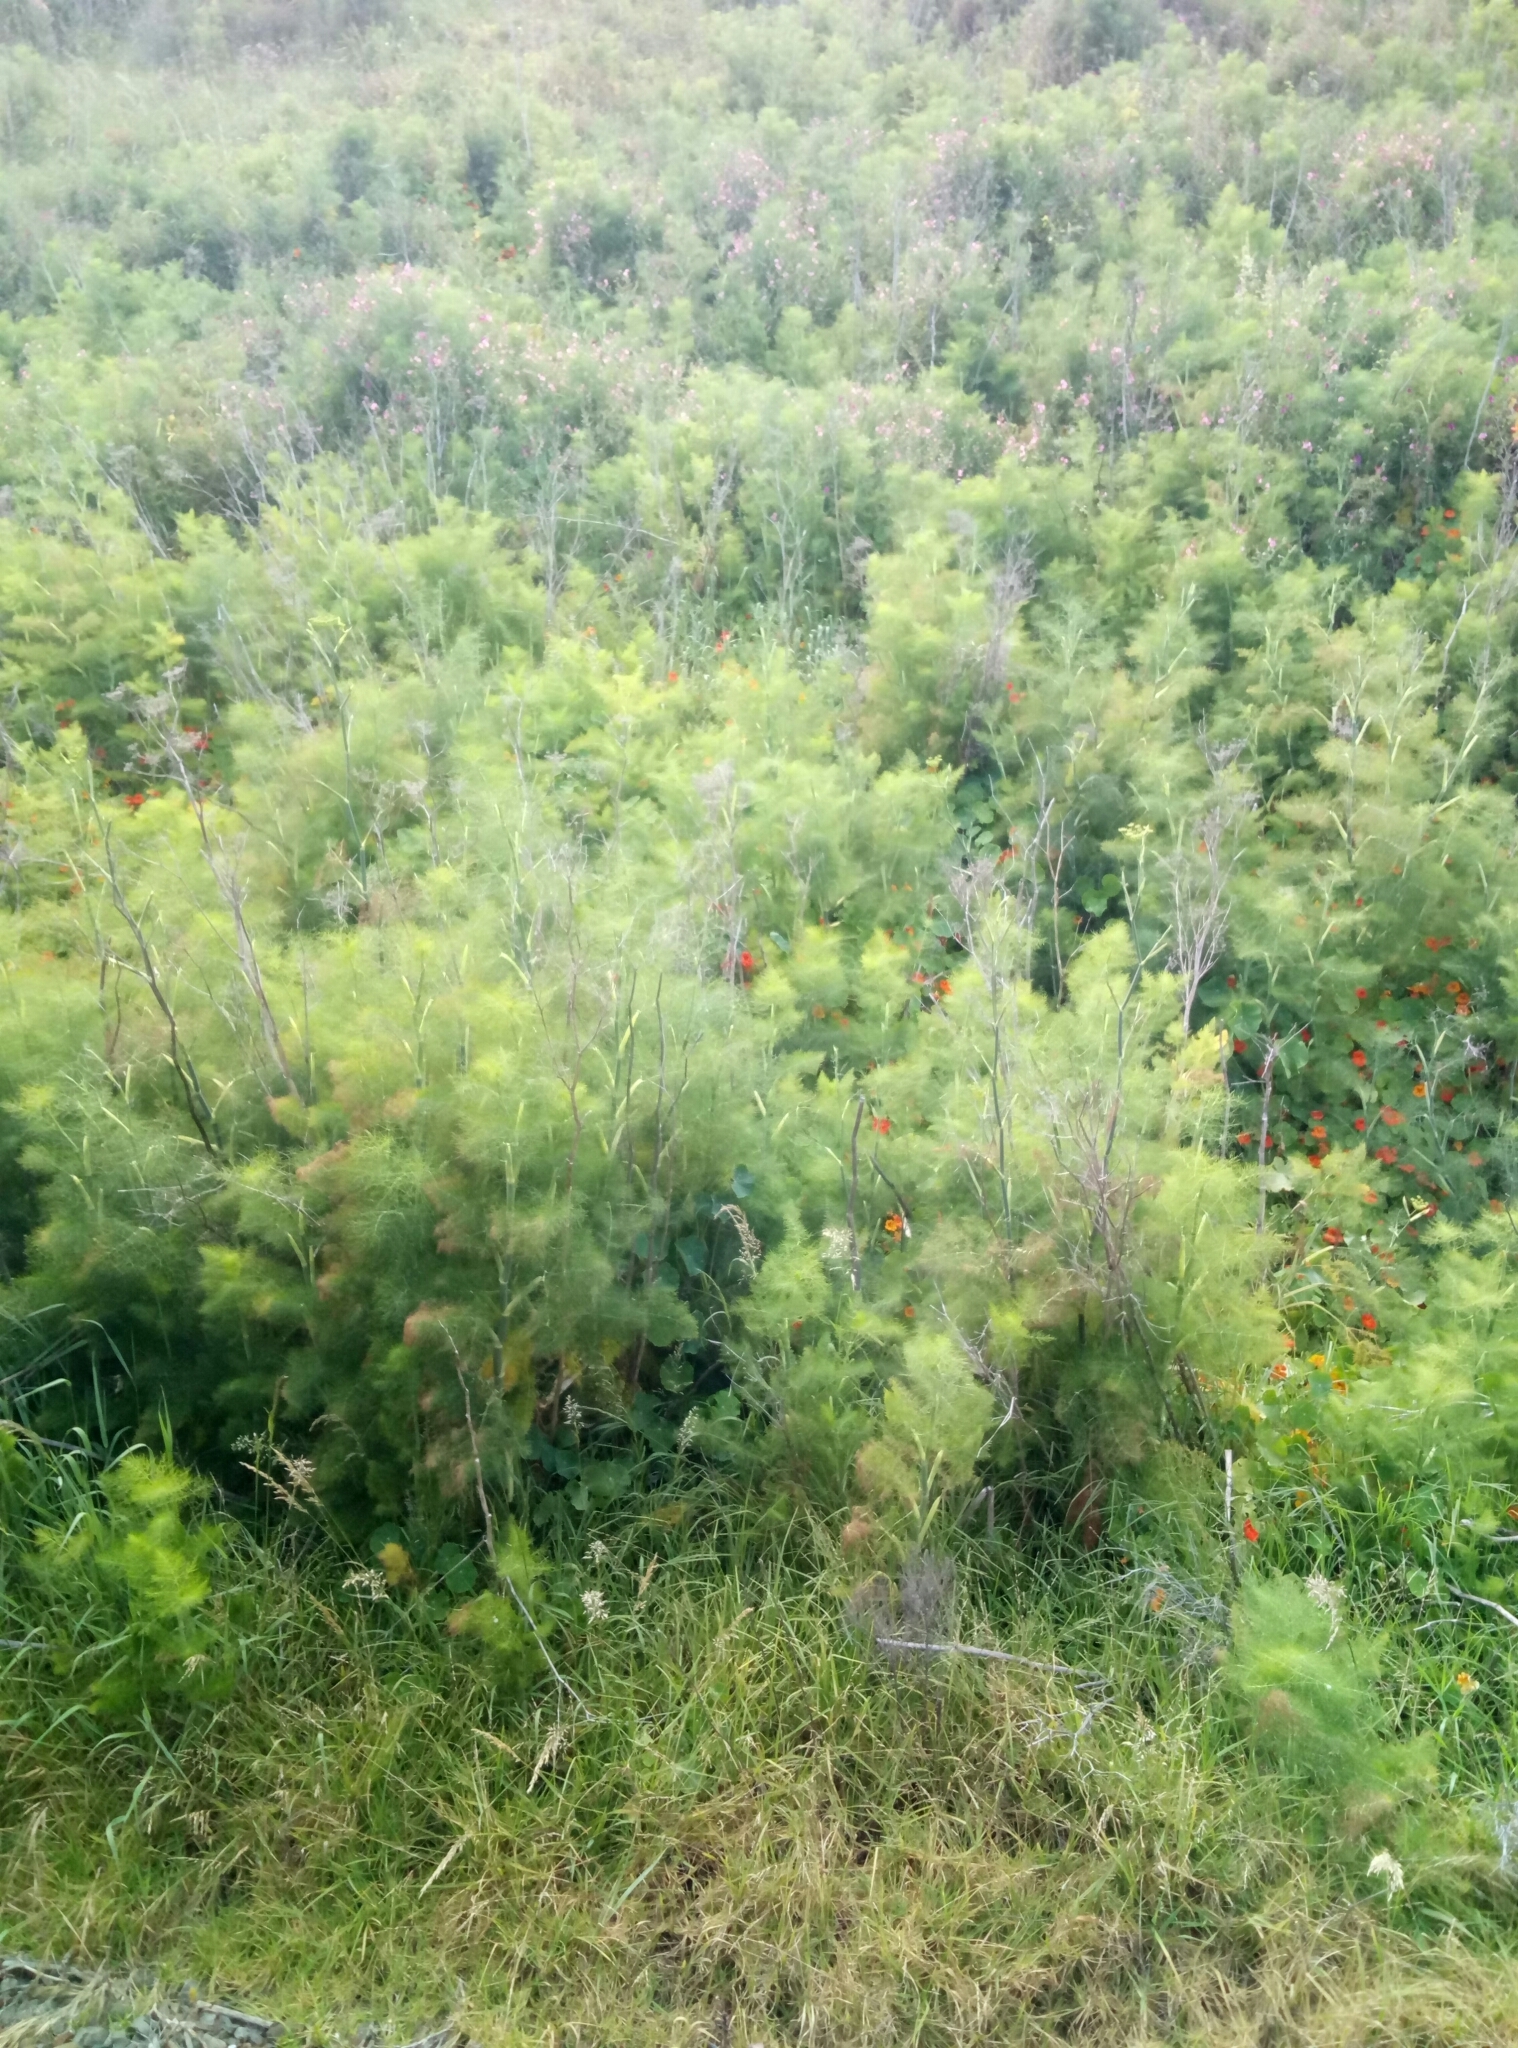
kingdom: Plantae
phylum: Tracheophyta
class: Magnoliopsida
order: Apiales
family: Apiaceae
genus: Foeniculum
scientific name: Foeniculum vulgare
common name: Fennel
